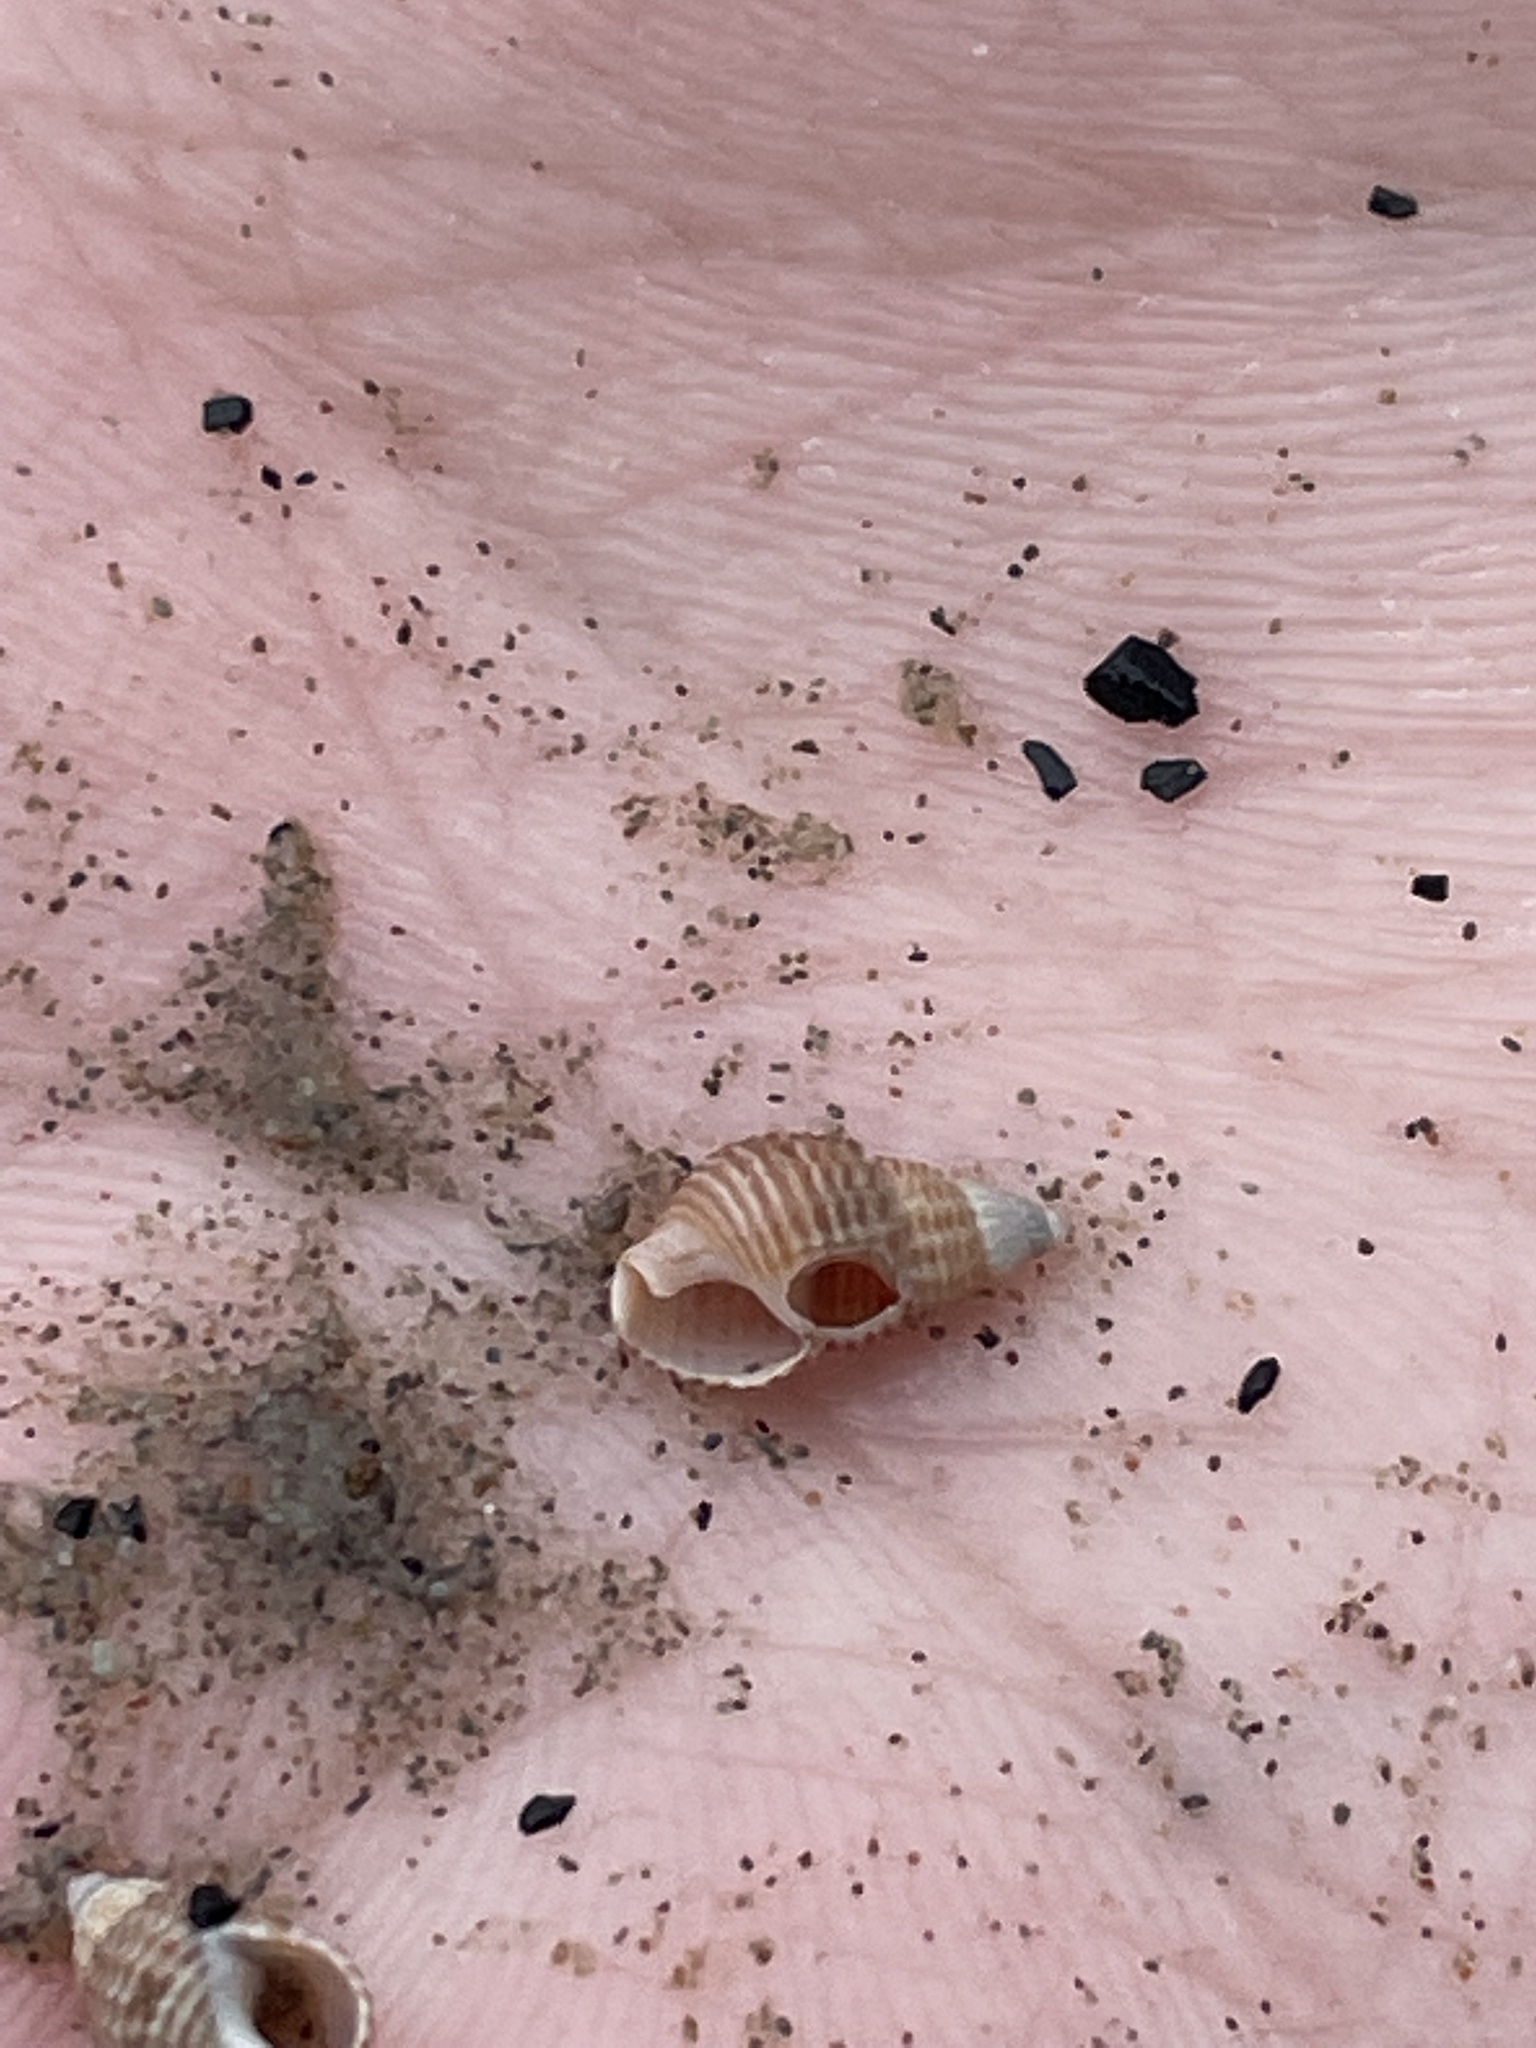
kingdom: Animalia
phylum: Mollusca
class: Gastropoda
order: Neogastropoda
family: Nassariidae
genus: Ilyanassa
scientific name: Ilyanassa trivittata
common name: Three-line mudsnail
